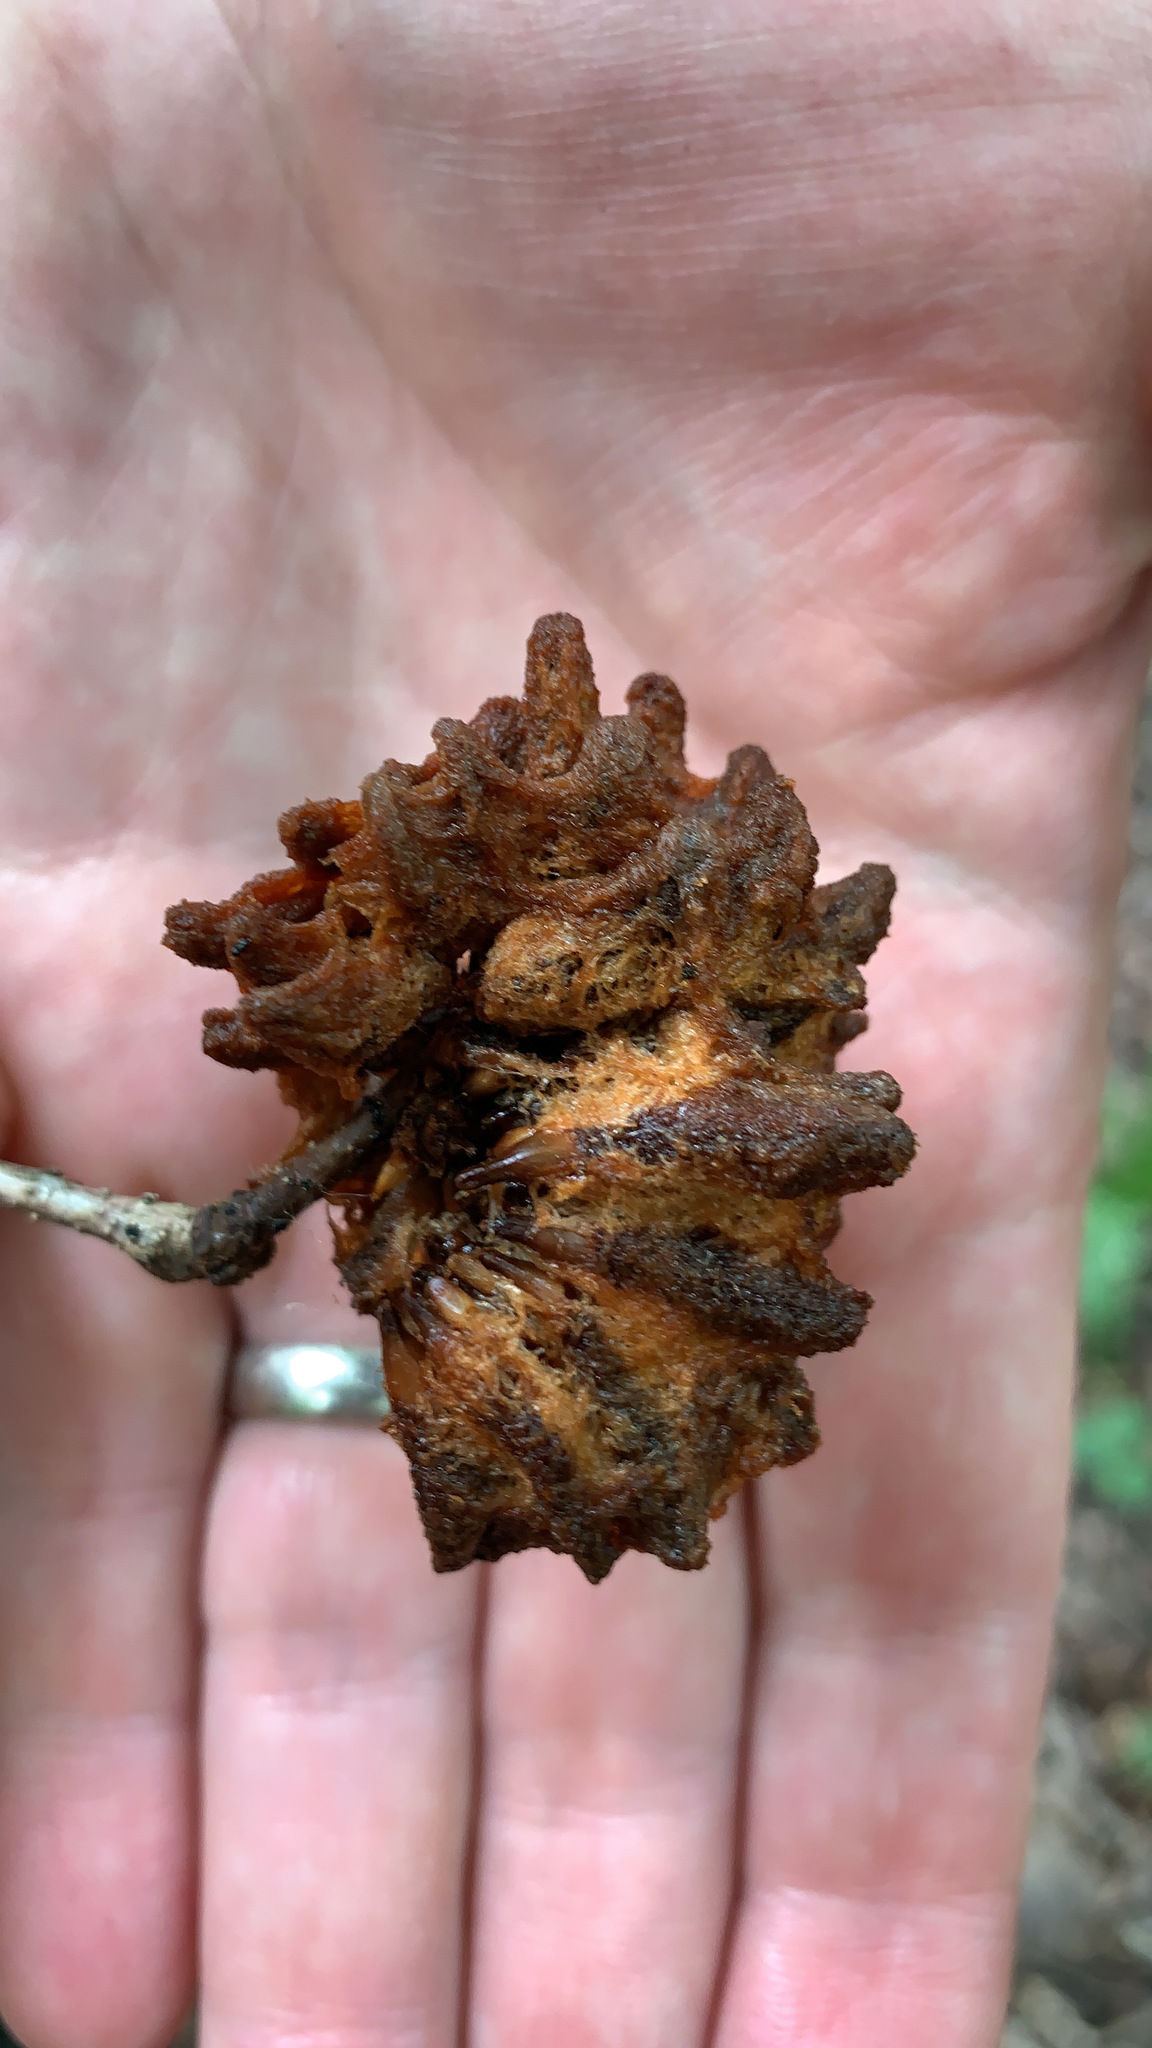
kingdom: Animalia
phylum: Arthropoda
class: Insecta
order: Hymenoptera
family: Cynipidae
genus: Callirhytis
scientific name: Callirhytis
